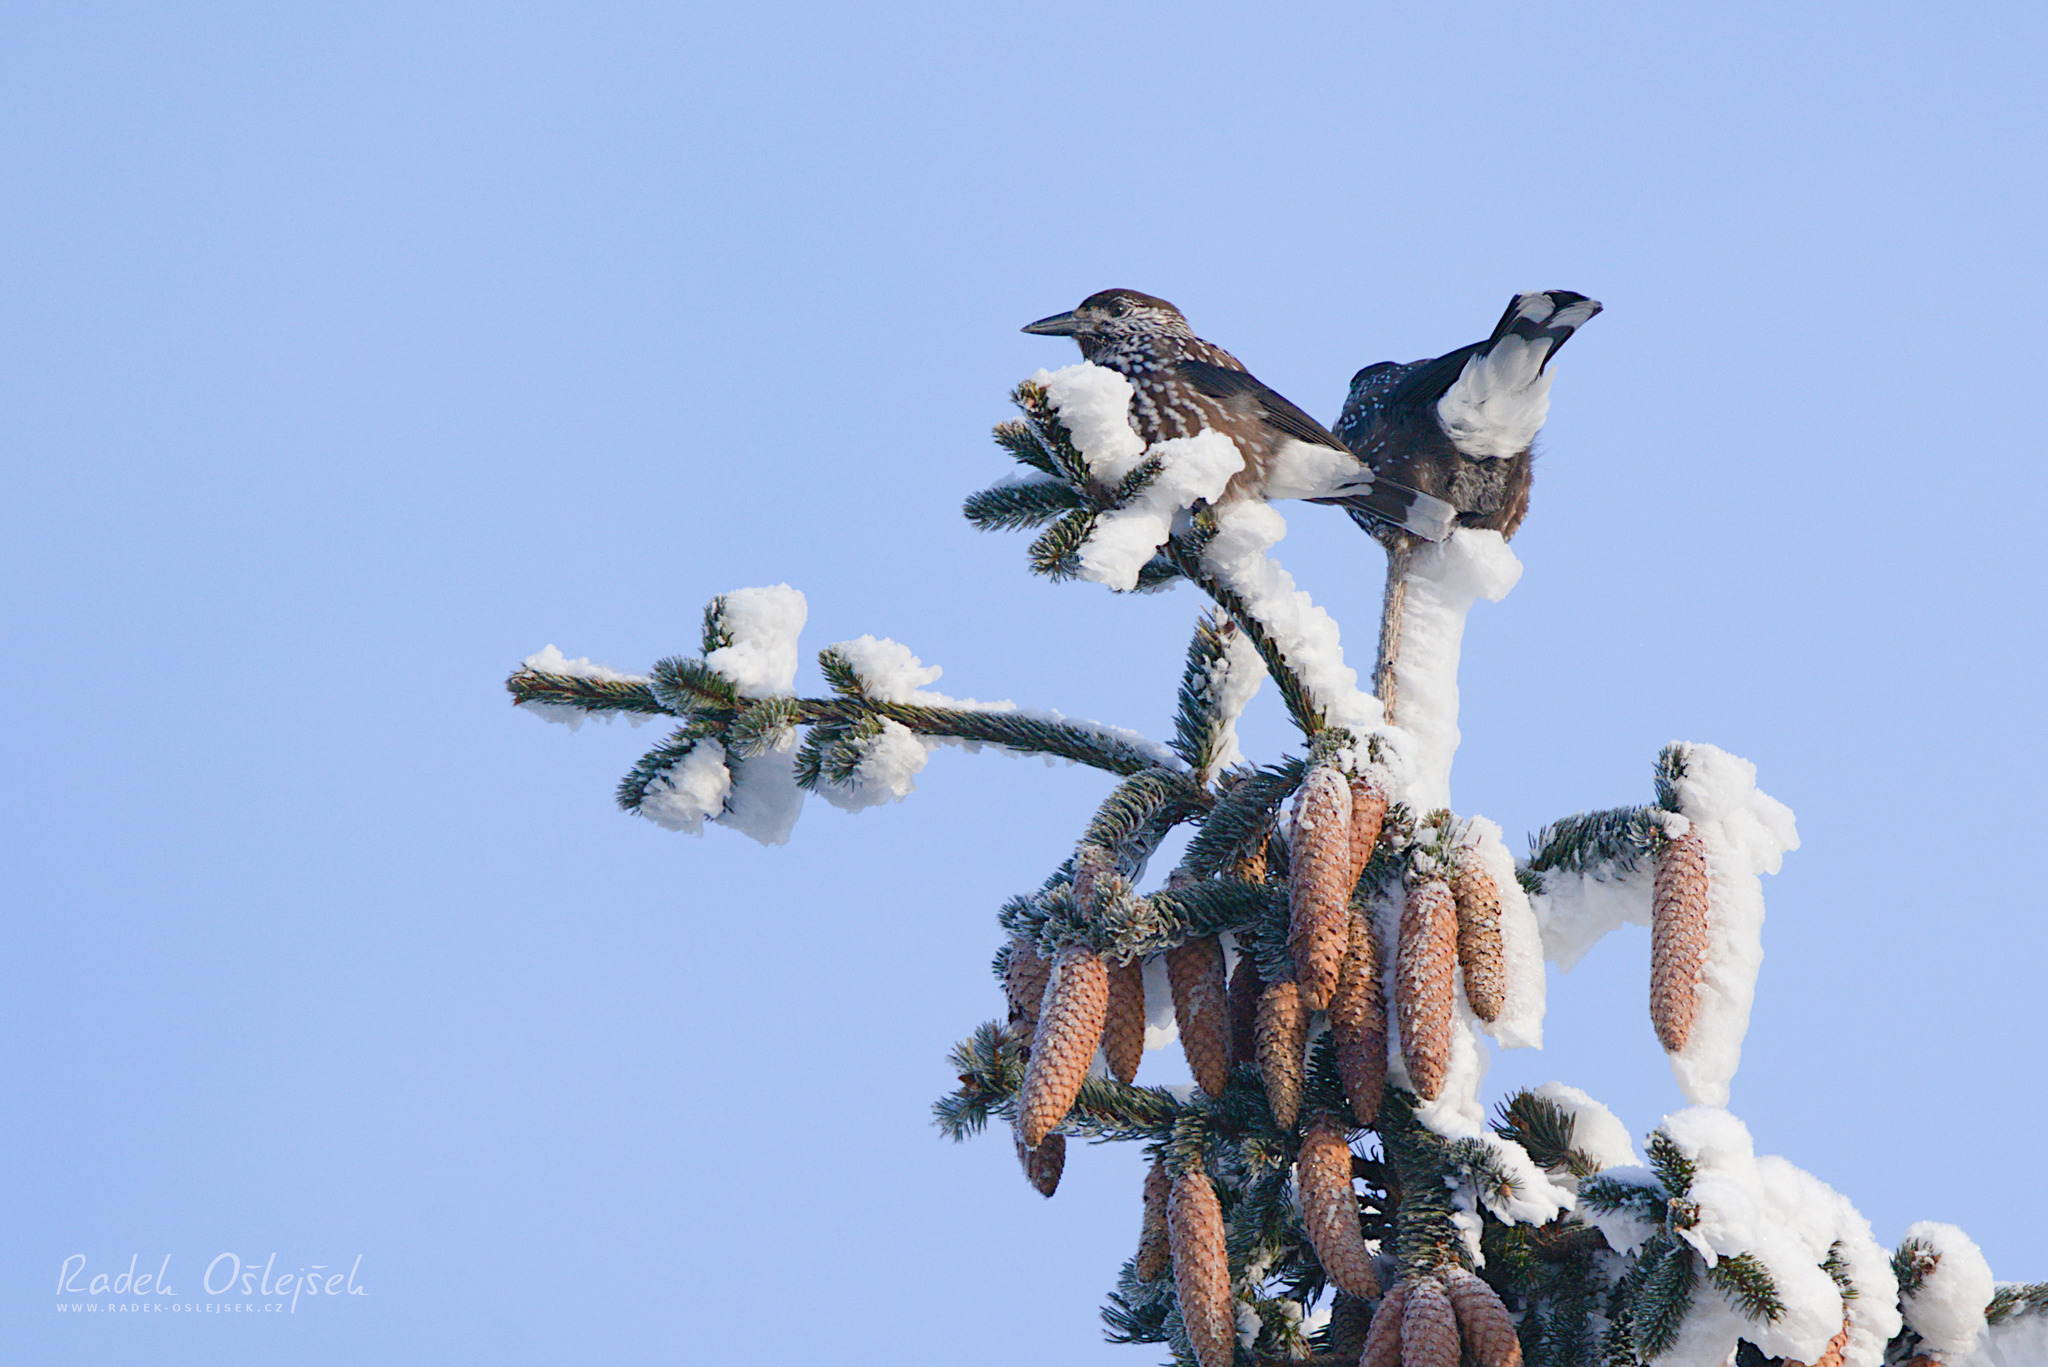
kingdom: Animalia
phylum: Chordata
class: Aves
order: Passeriformes
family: Corvidae
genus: Nucifraga
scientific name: Nucifraga caryocatactes
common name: Spotted nutcracker
